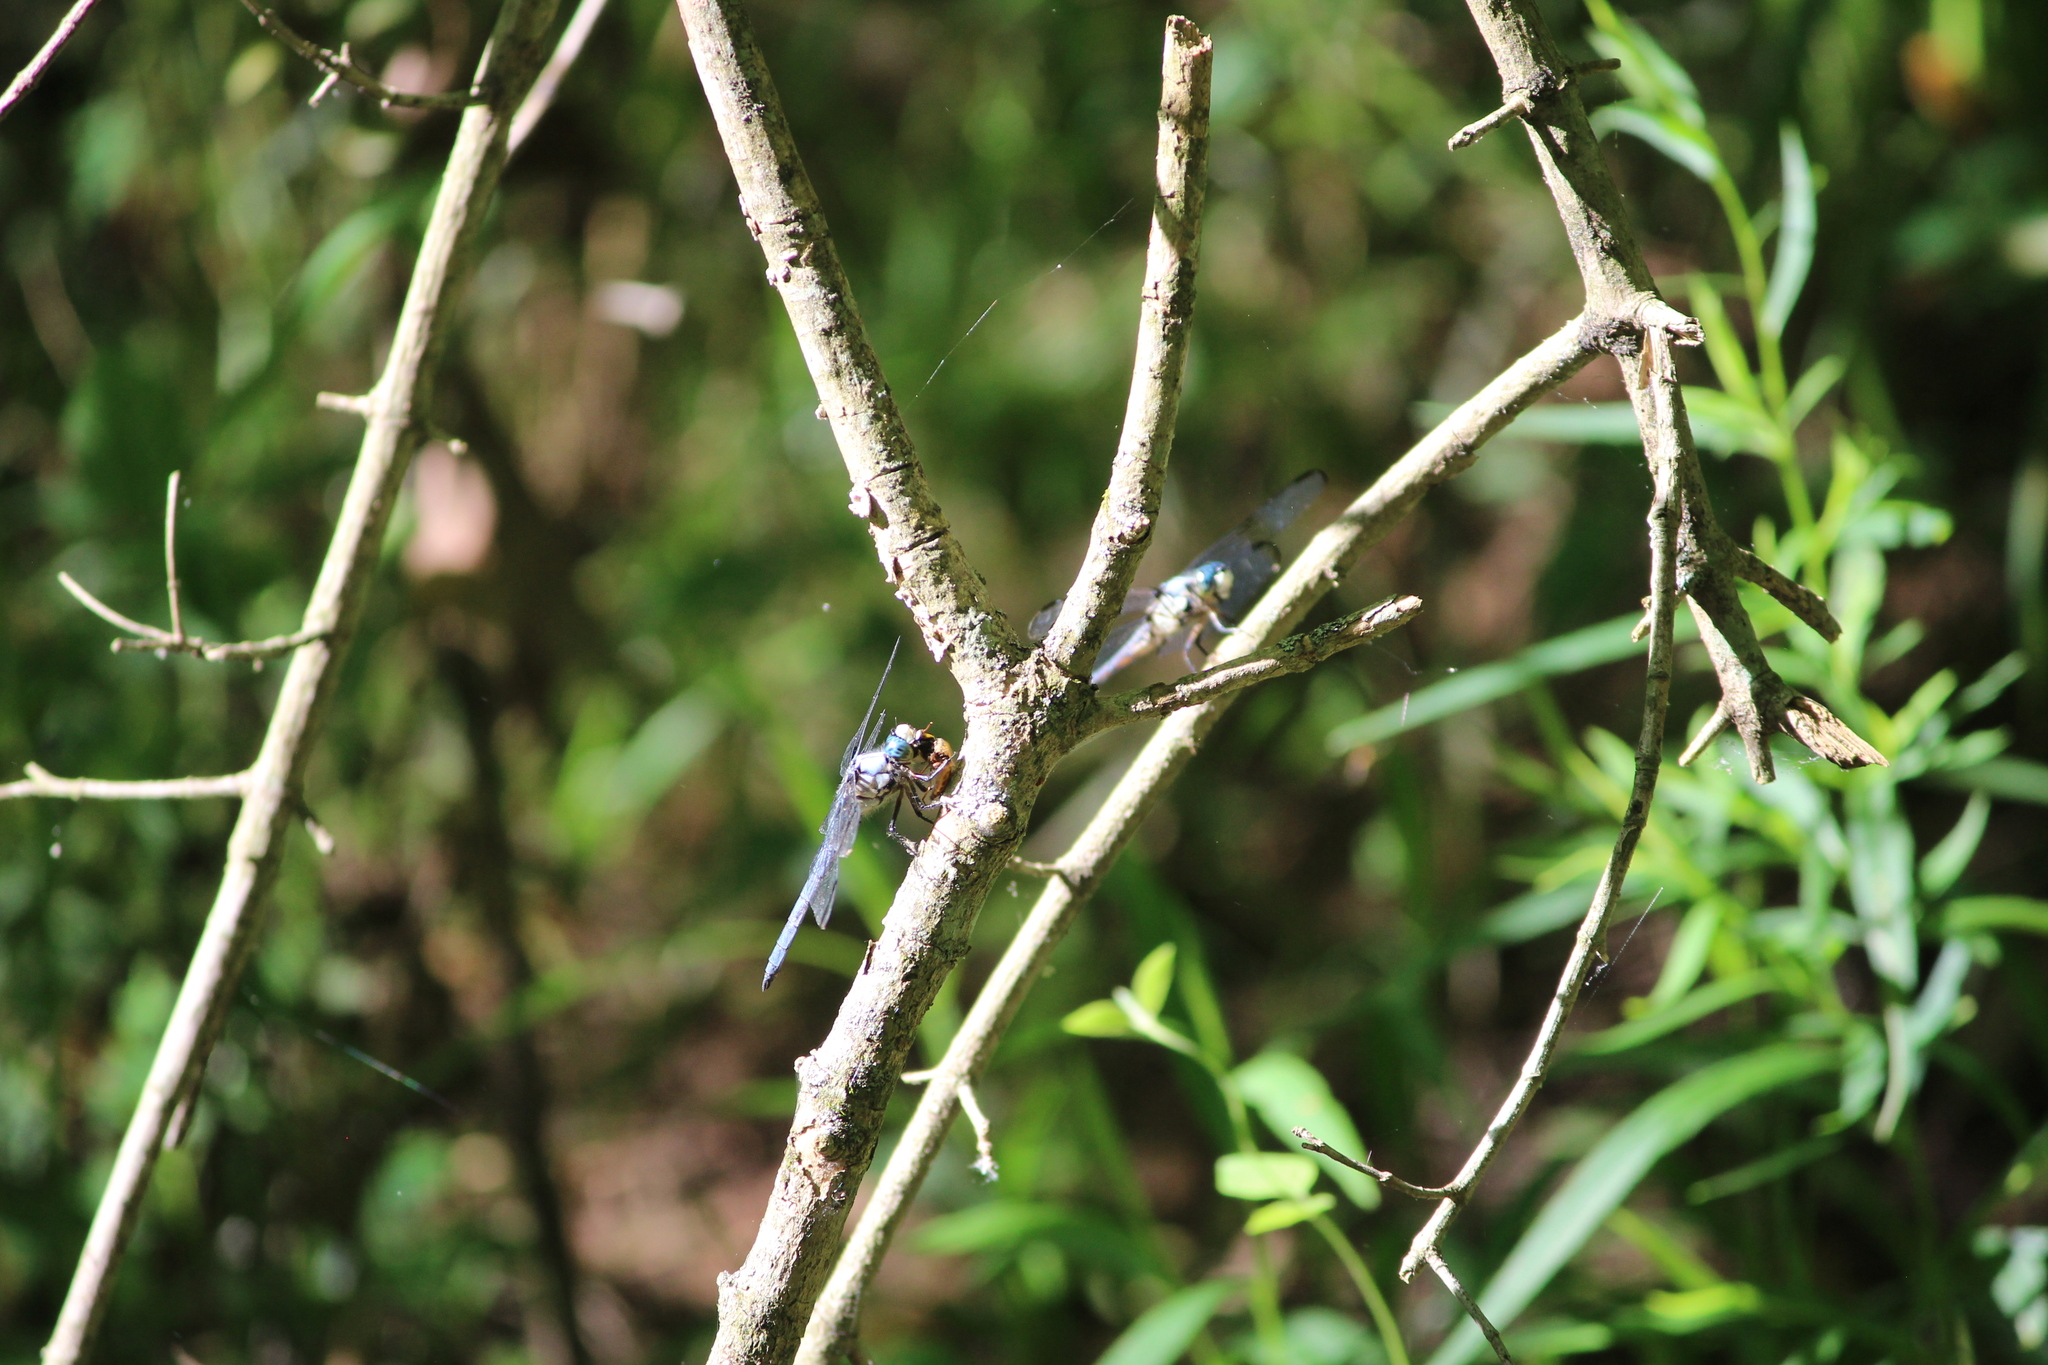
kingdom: Animalia
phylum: Arthropoda
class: Insecta
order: Odonata
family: Libellulidae
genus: Libellula
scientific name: Libellula vibrans
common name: Great blue skimmer
